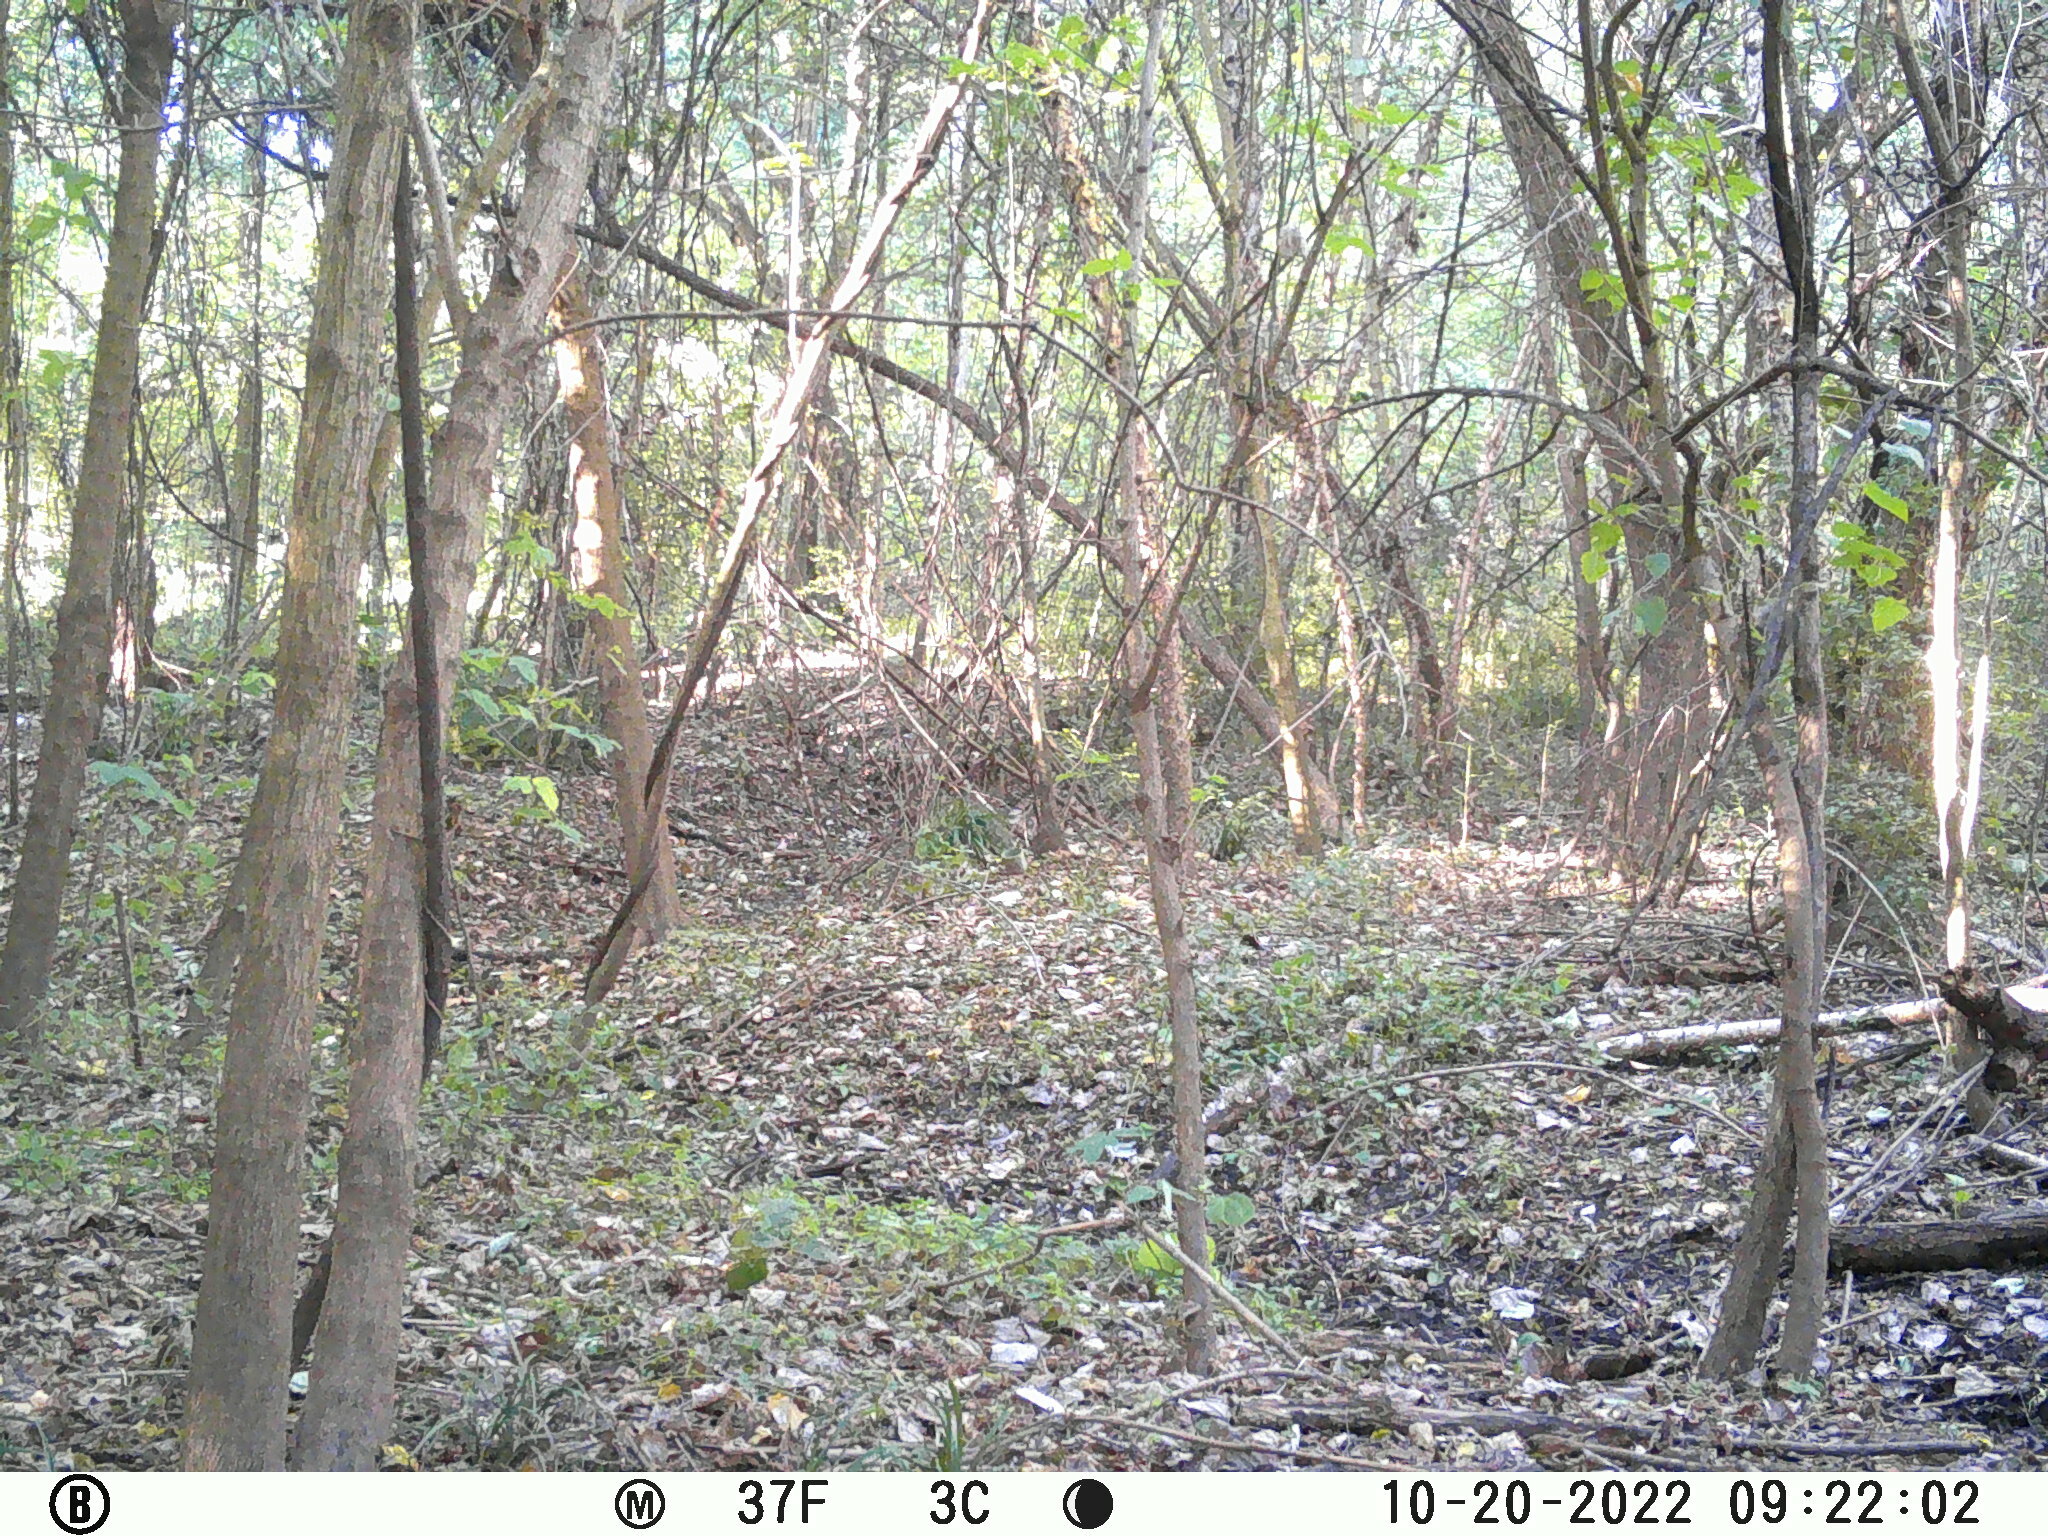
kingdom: Animalia
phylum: Chordata
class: Mammalia
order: Rodentia
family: Sciuridae
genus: Sciurus
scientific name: Sciurus carolinensis
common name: Eastern gray squirrel
